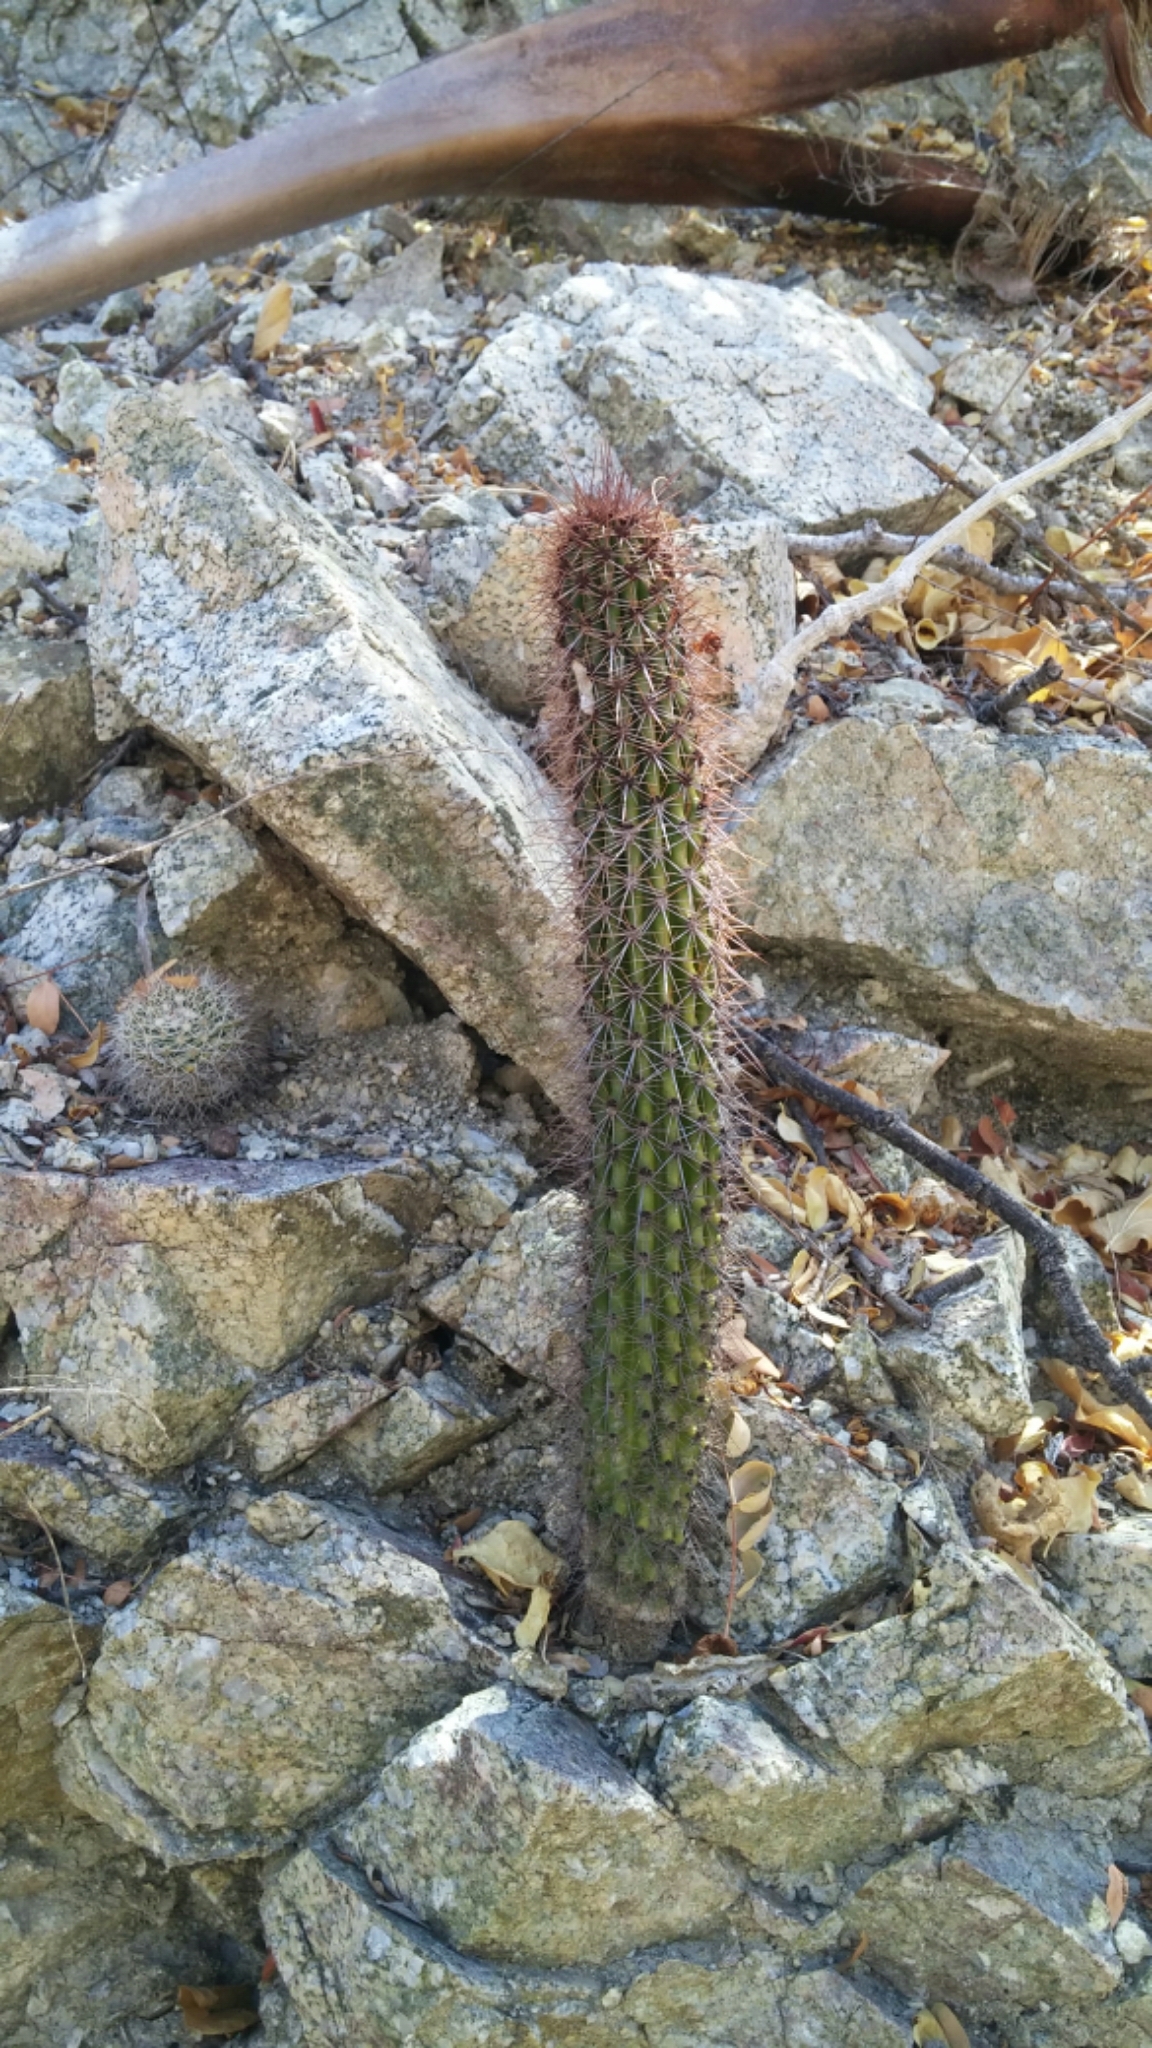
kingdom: Plantae
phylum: Tracheophyta
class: Magnoliopsida
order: Caryophyllales
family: Cactaceae
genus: Stenocereus
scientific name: Stenocereus thurberi
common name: Organ pipe cactus
